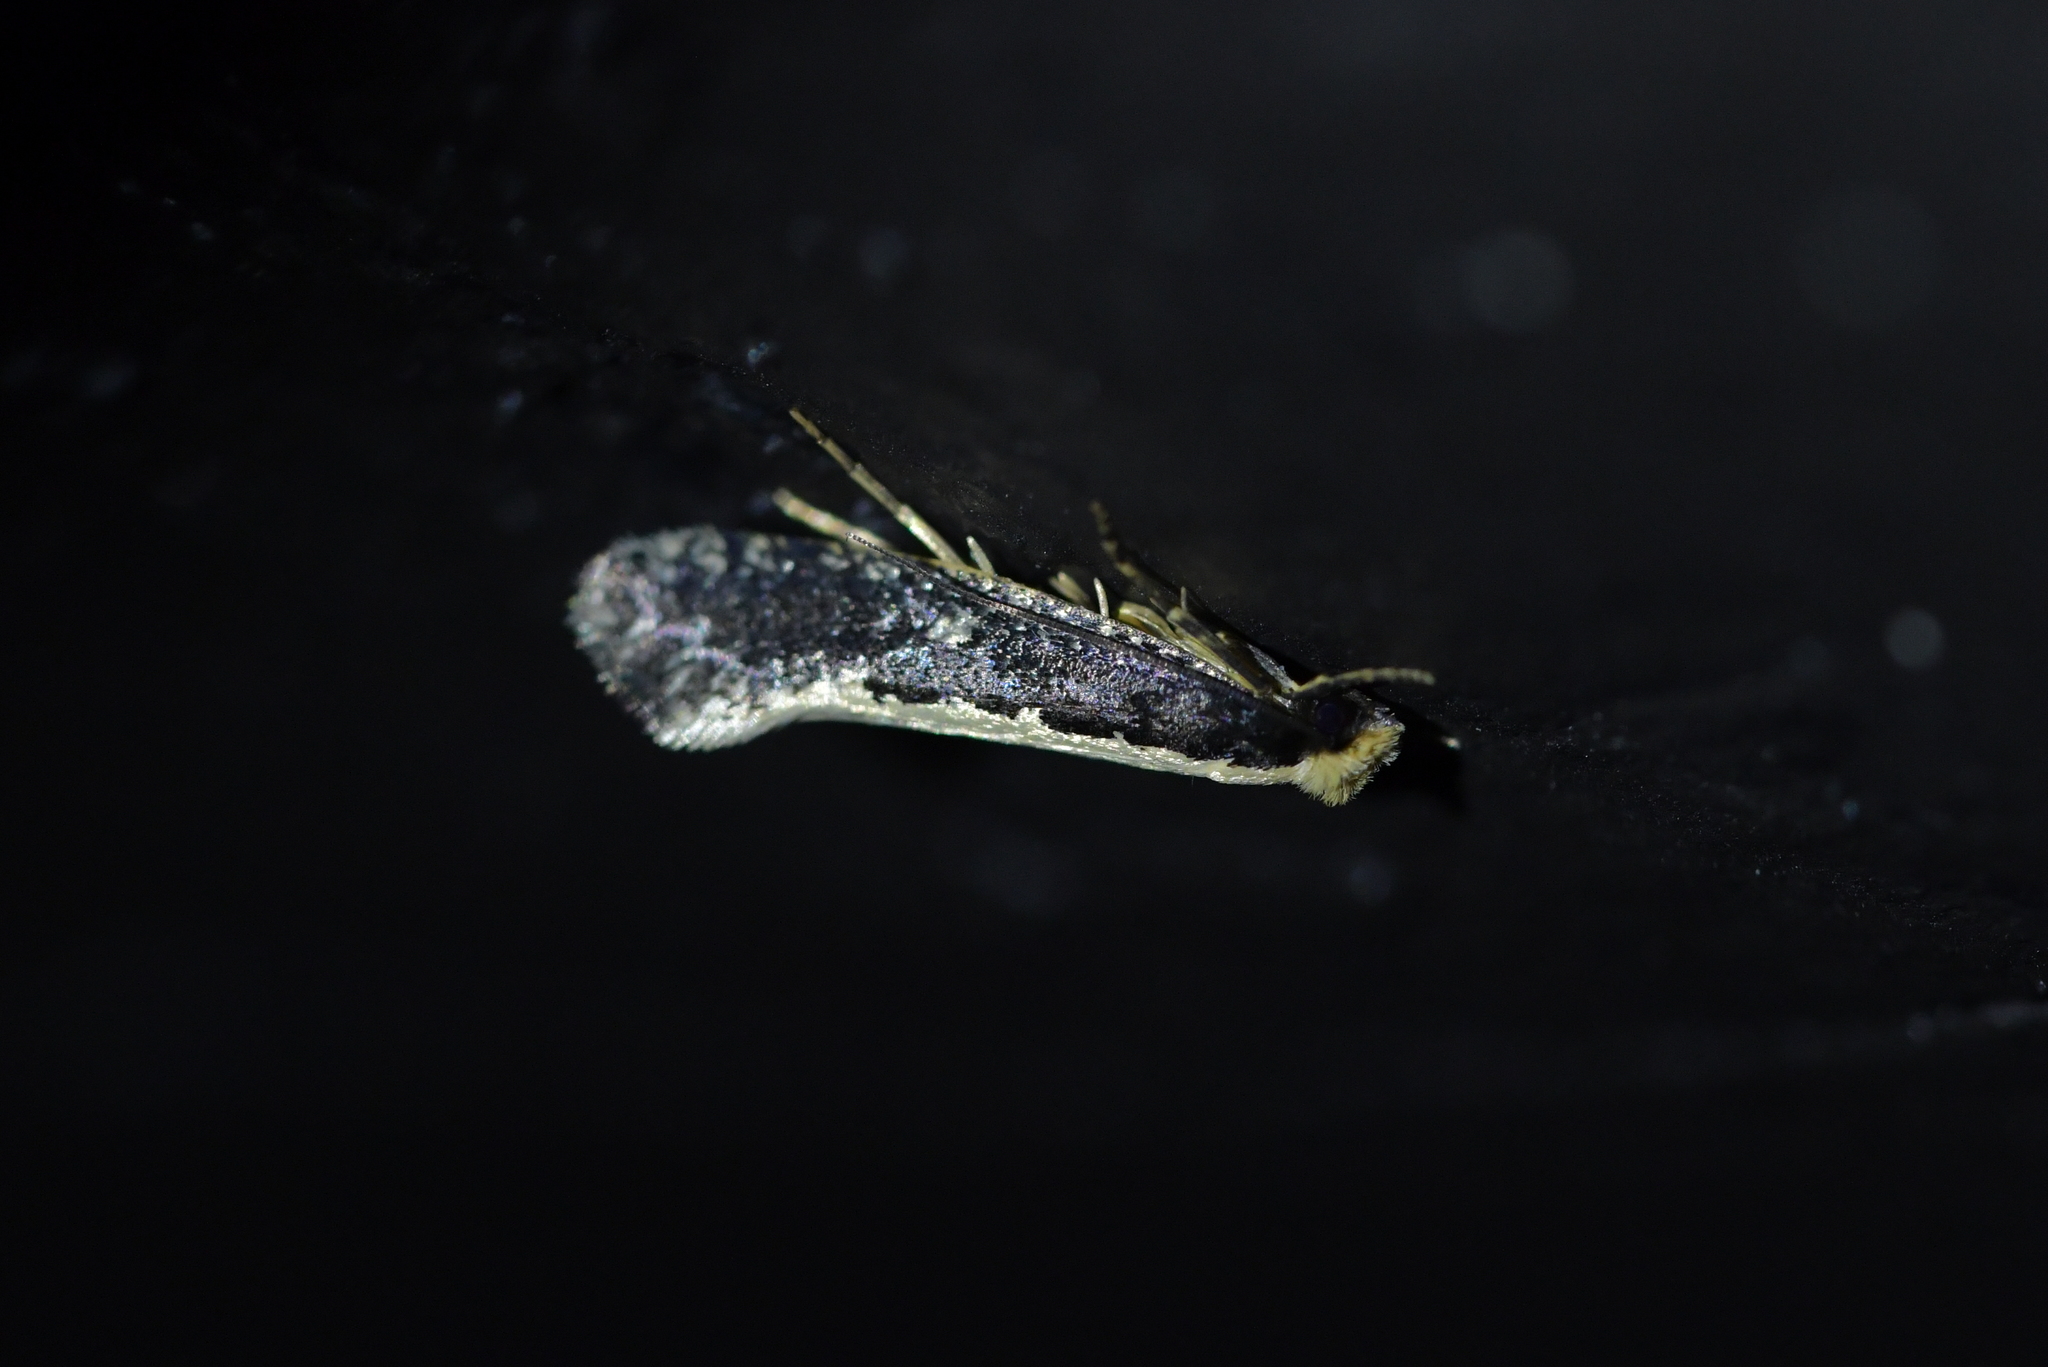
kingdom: Animalia
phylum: Arthropoda
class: Insecta
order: Lepidoptera
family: Tineidae
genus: Monopis
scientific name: Monopis ethelella
